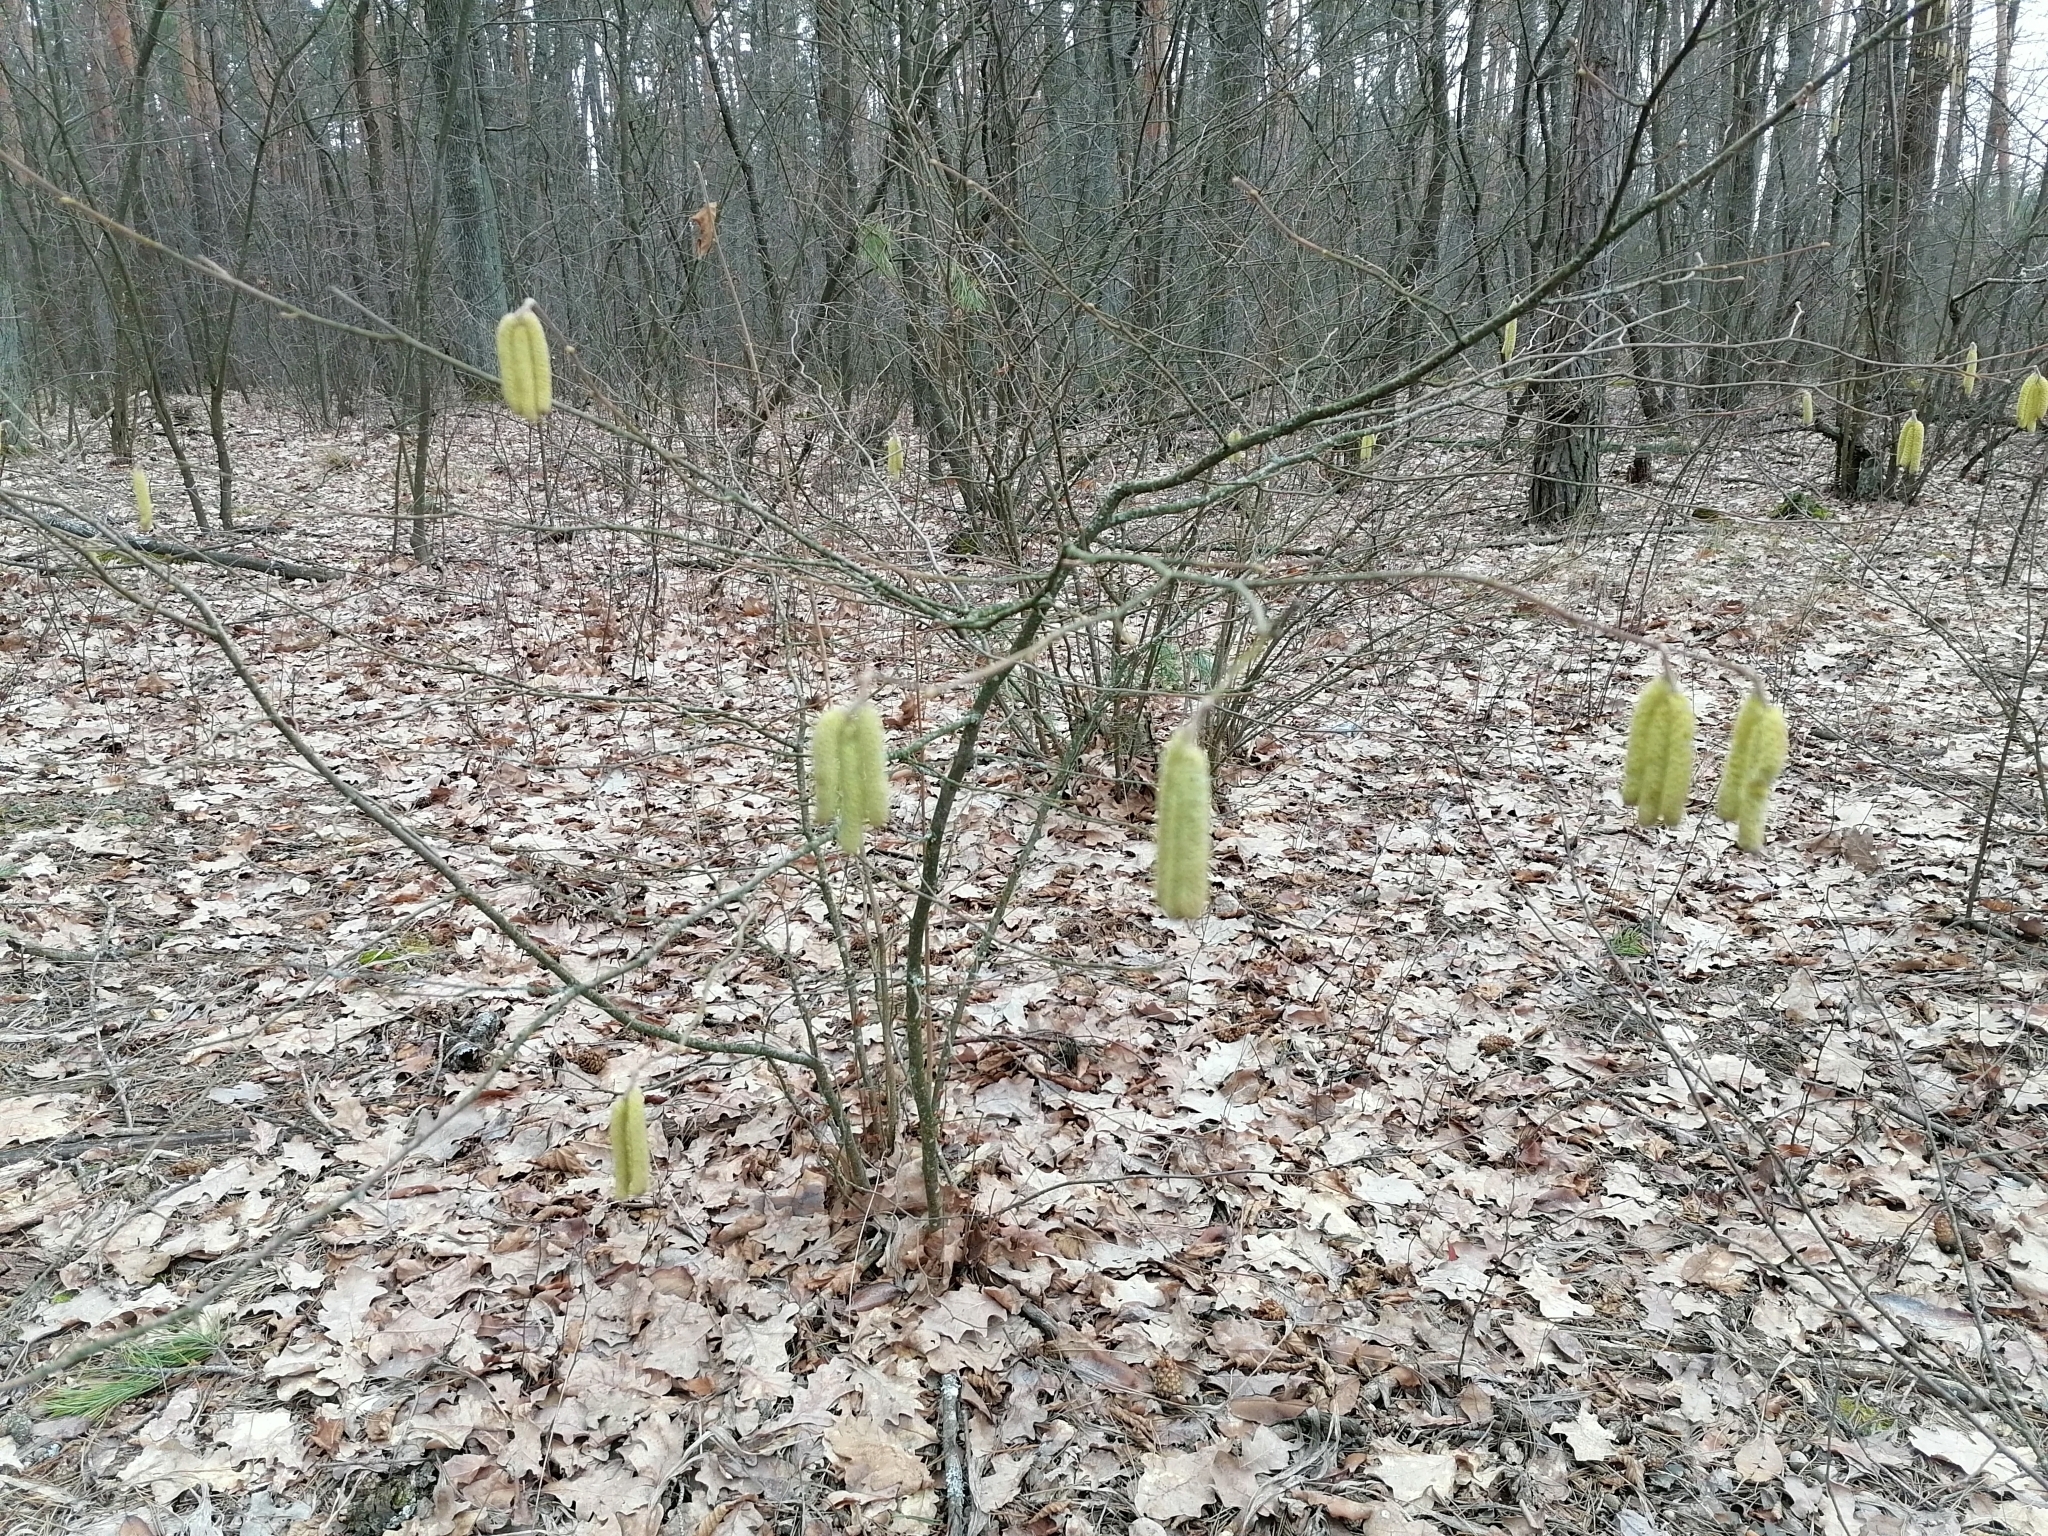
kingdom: Plantae
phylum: Tracheophyta
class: Magnoliopsida
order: Fagales
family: Betulaceae
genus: Corylus
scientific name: Corylus avellana
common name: European hazel
